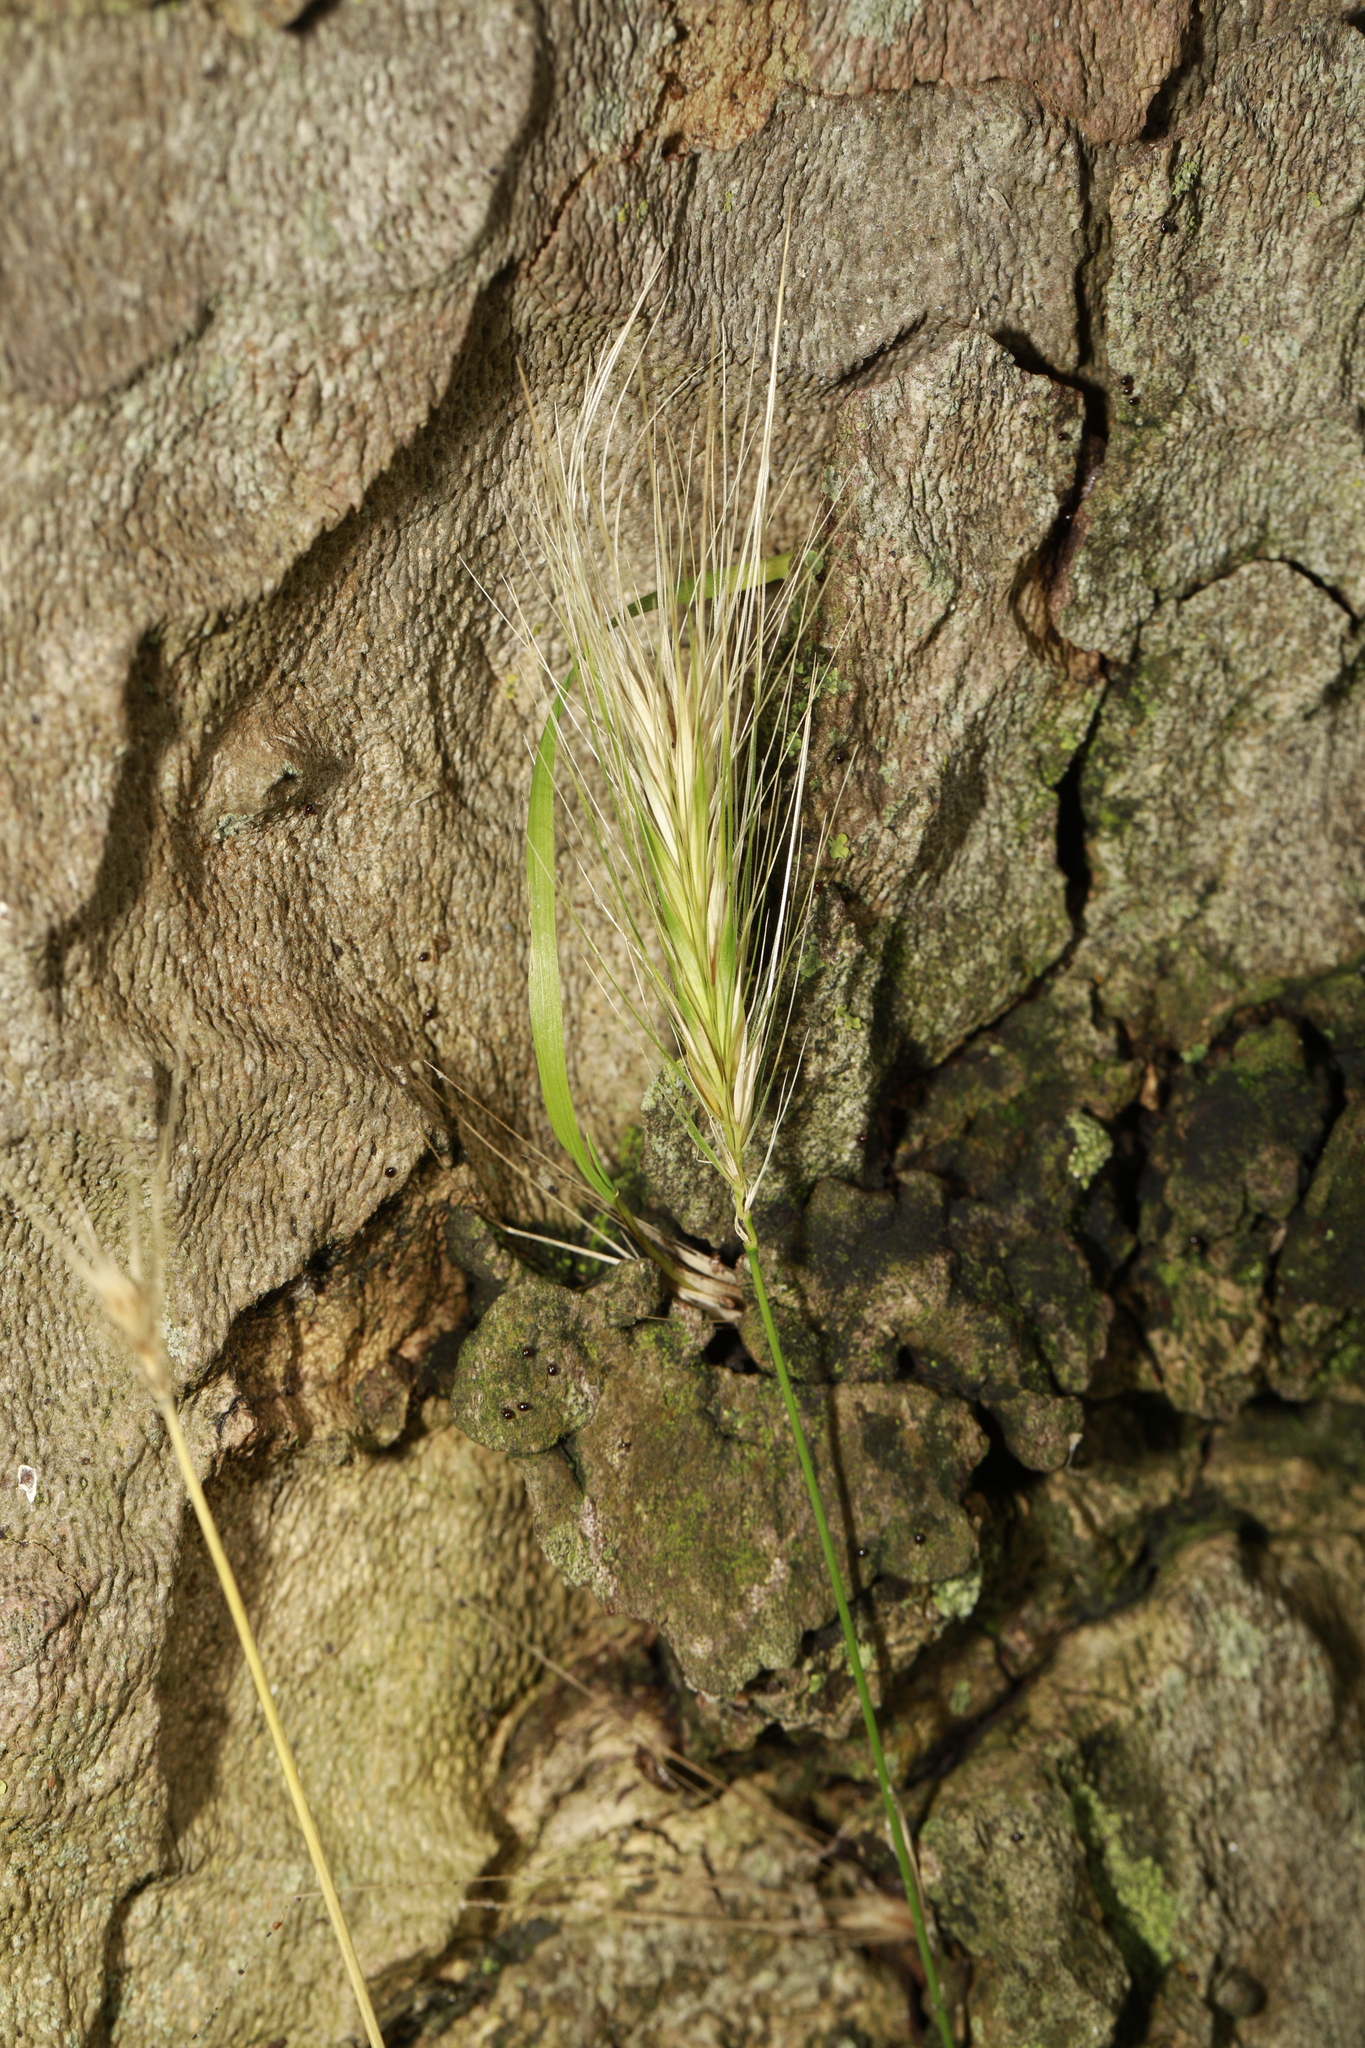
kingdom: Plantae
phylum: Tracheophyta
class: Liliopsida
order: Poales
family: Poaceae
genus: Hordeum
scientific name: Hordeum murinum
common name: Wall barley
